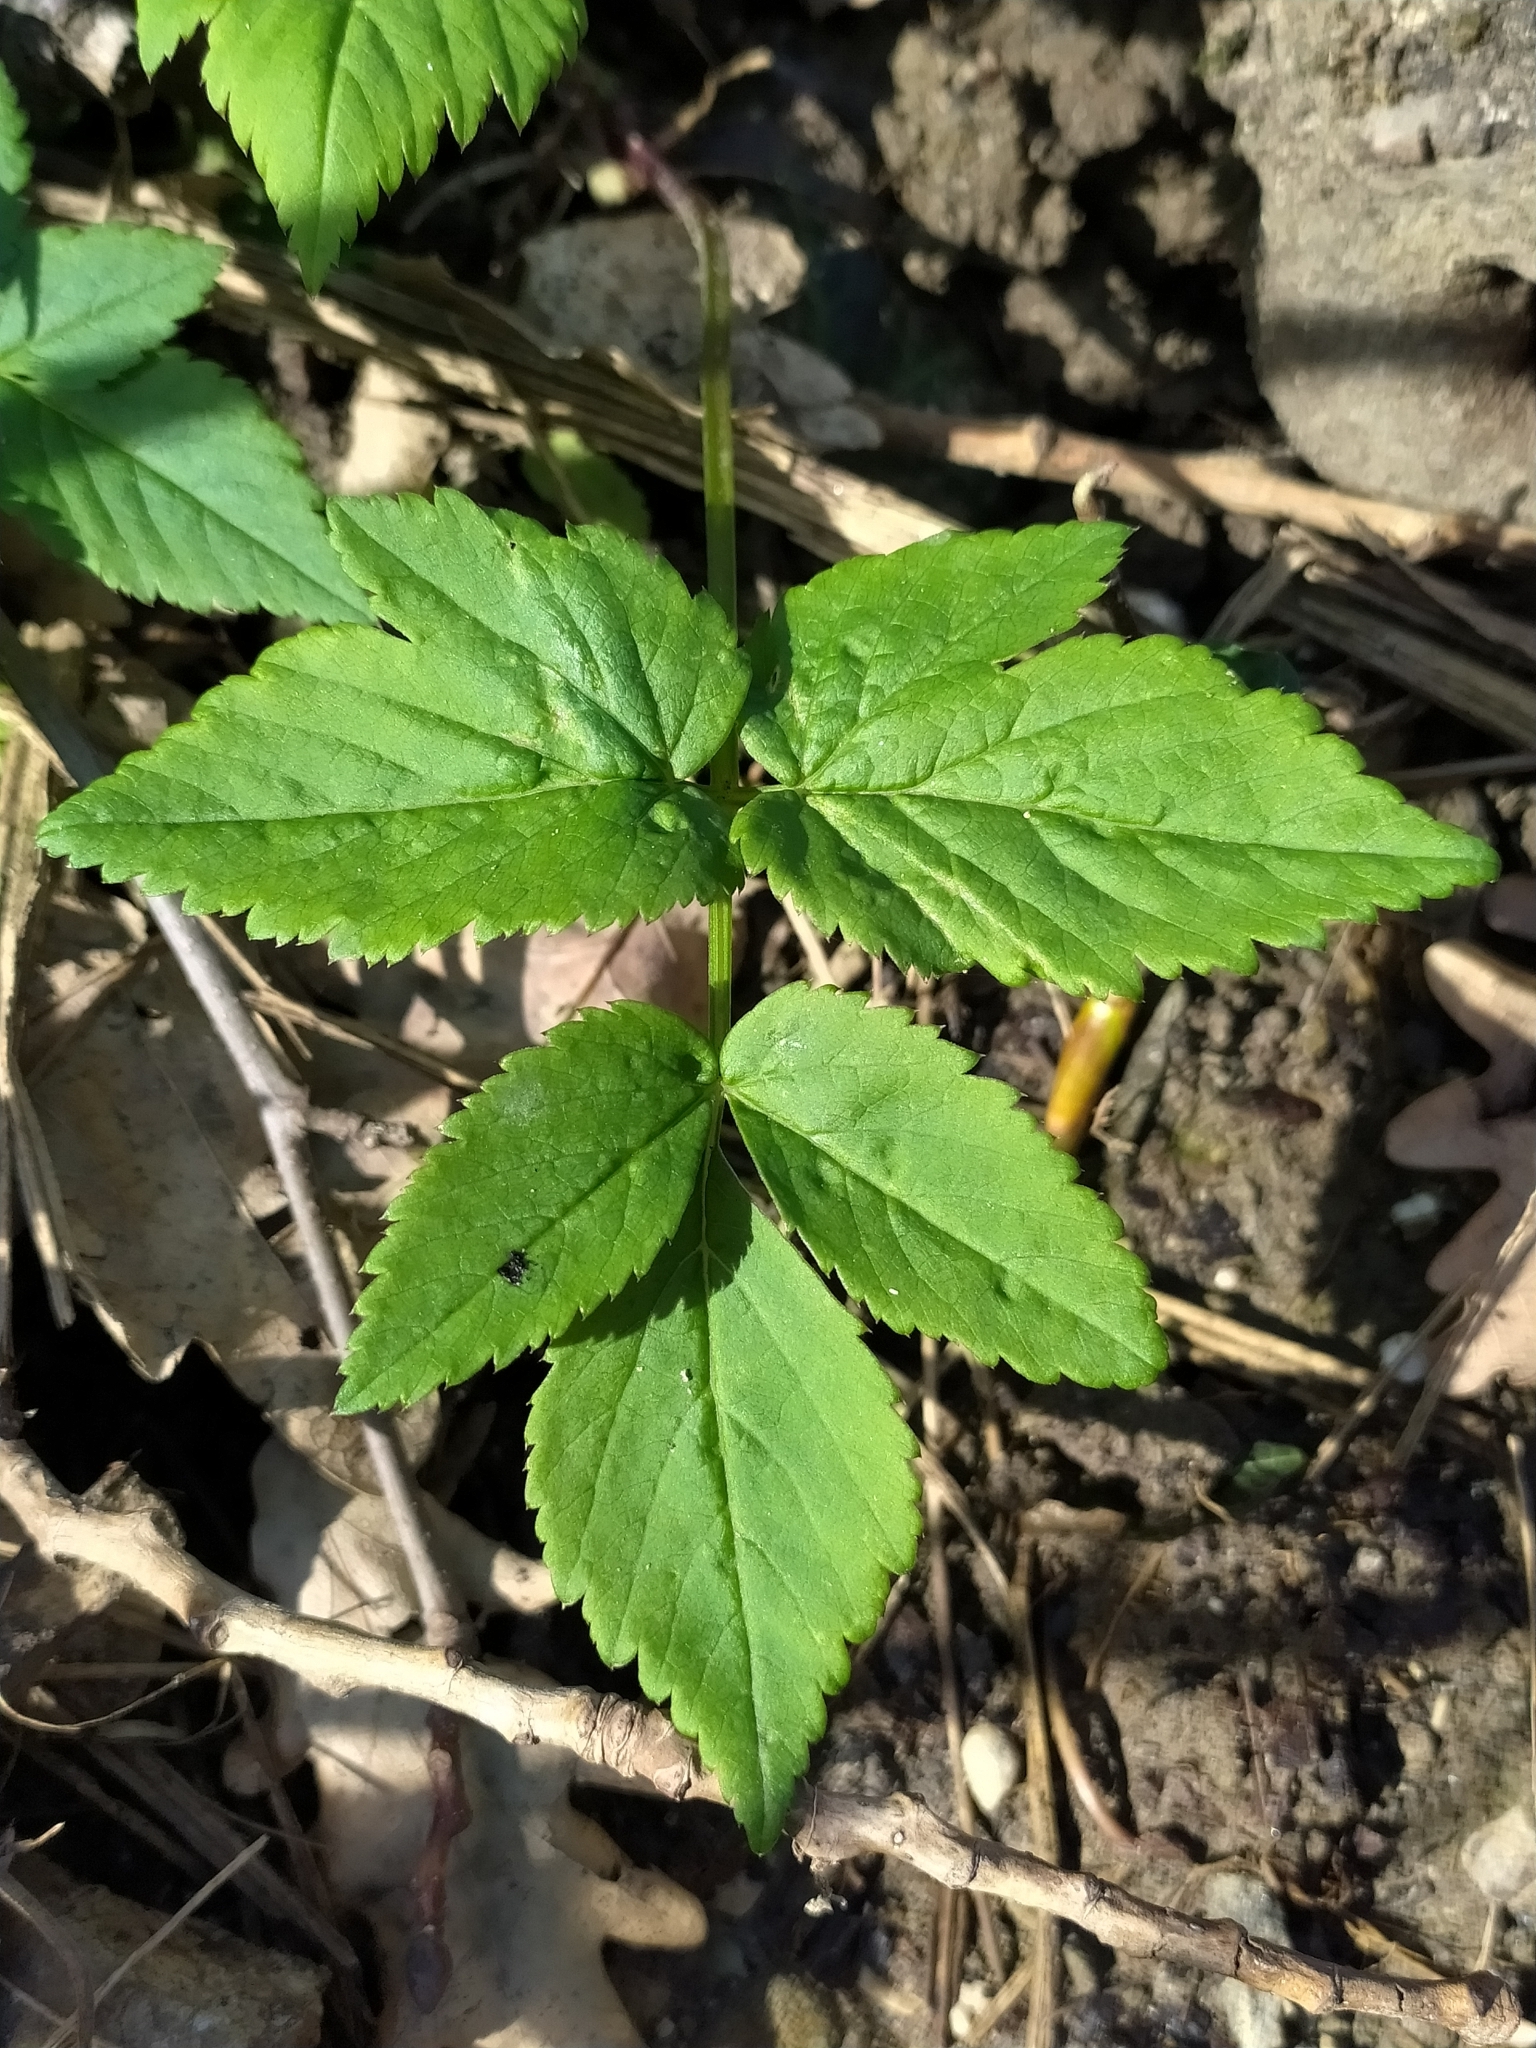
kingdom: Plantae
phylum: Tracheophyta
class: Magnoliopsida
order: Apiales
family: Apiaceae
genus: Aegopodium
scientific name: Aegopodium podagraria
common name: Ground-elder
